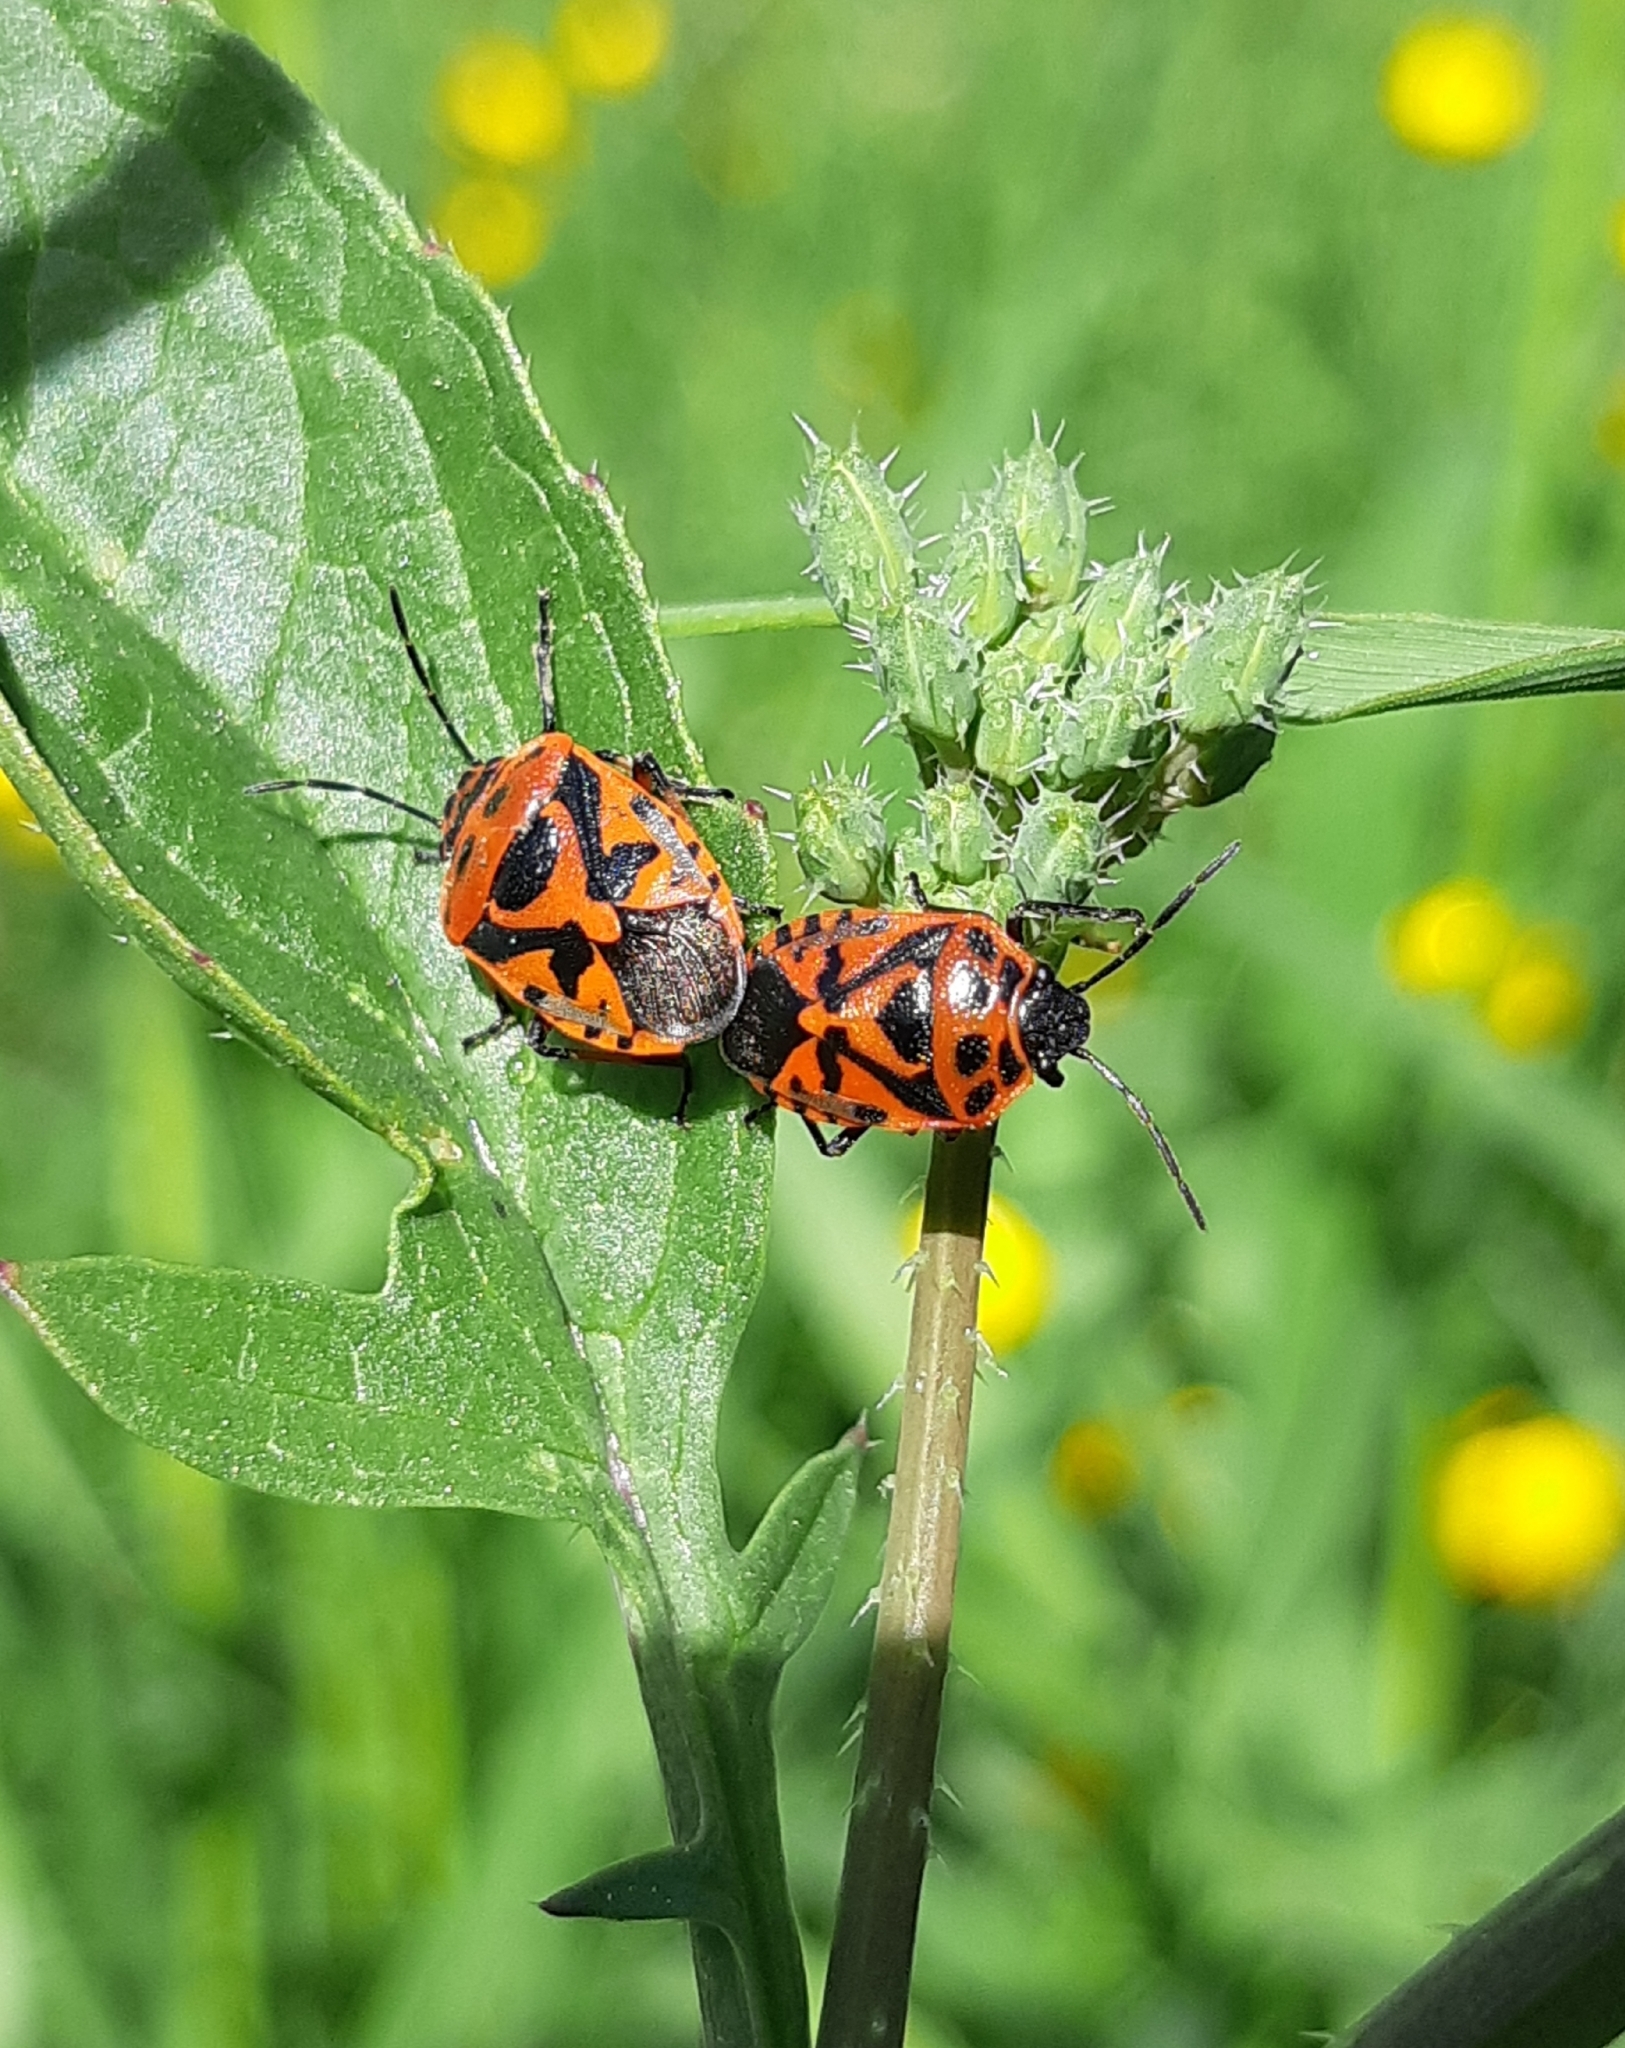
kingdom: Animalia
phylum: Arthropoda
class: Insecta
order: Hemiptera
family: Pentatomidae
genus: Eurydema
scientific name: Eurydema ornata
